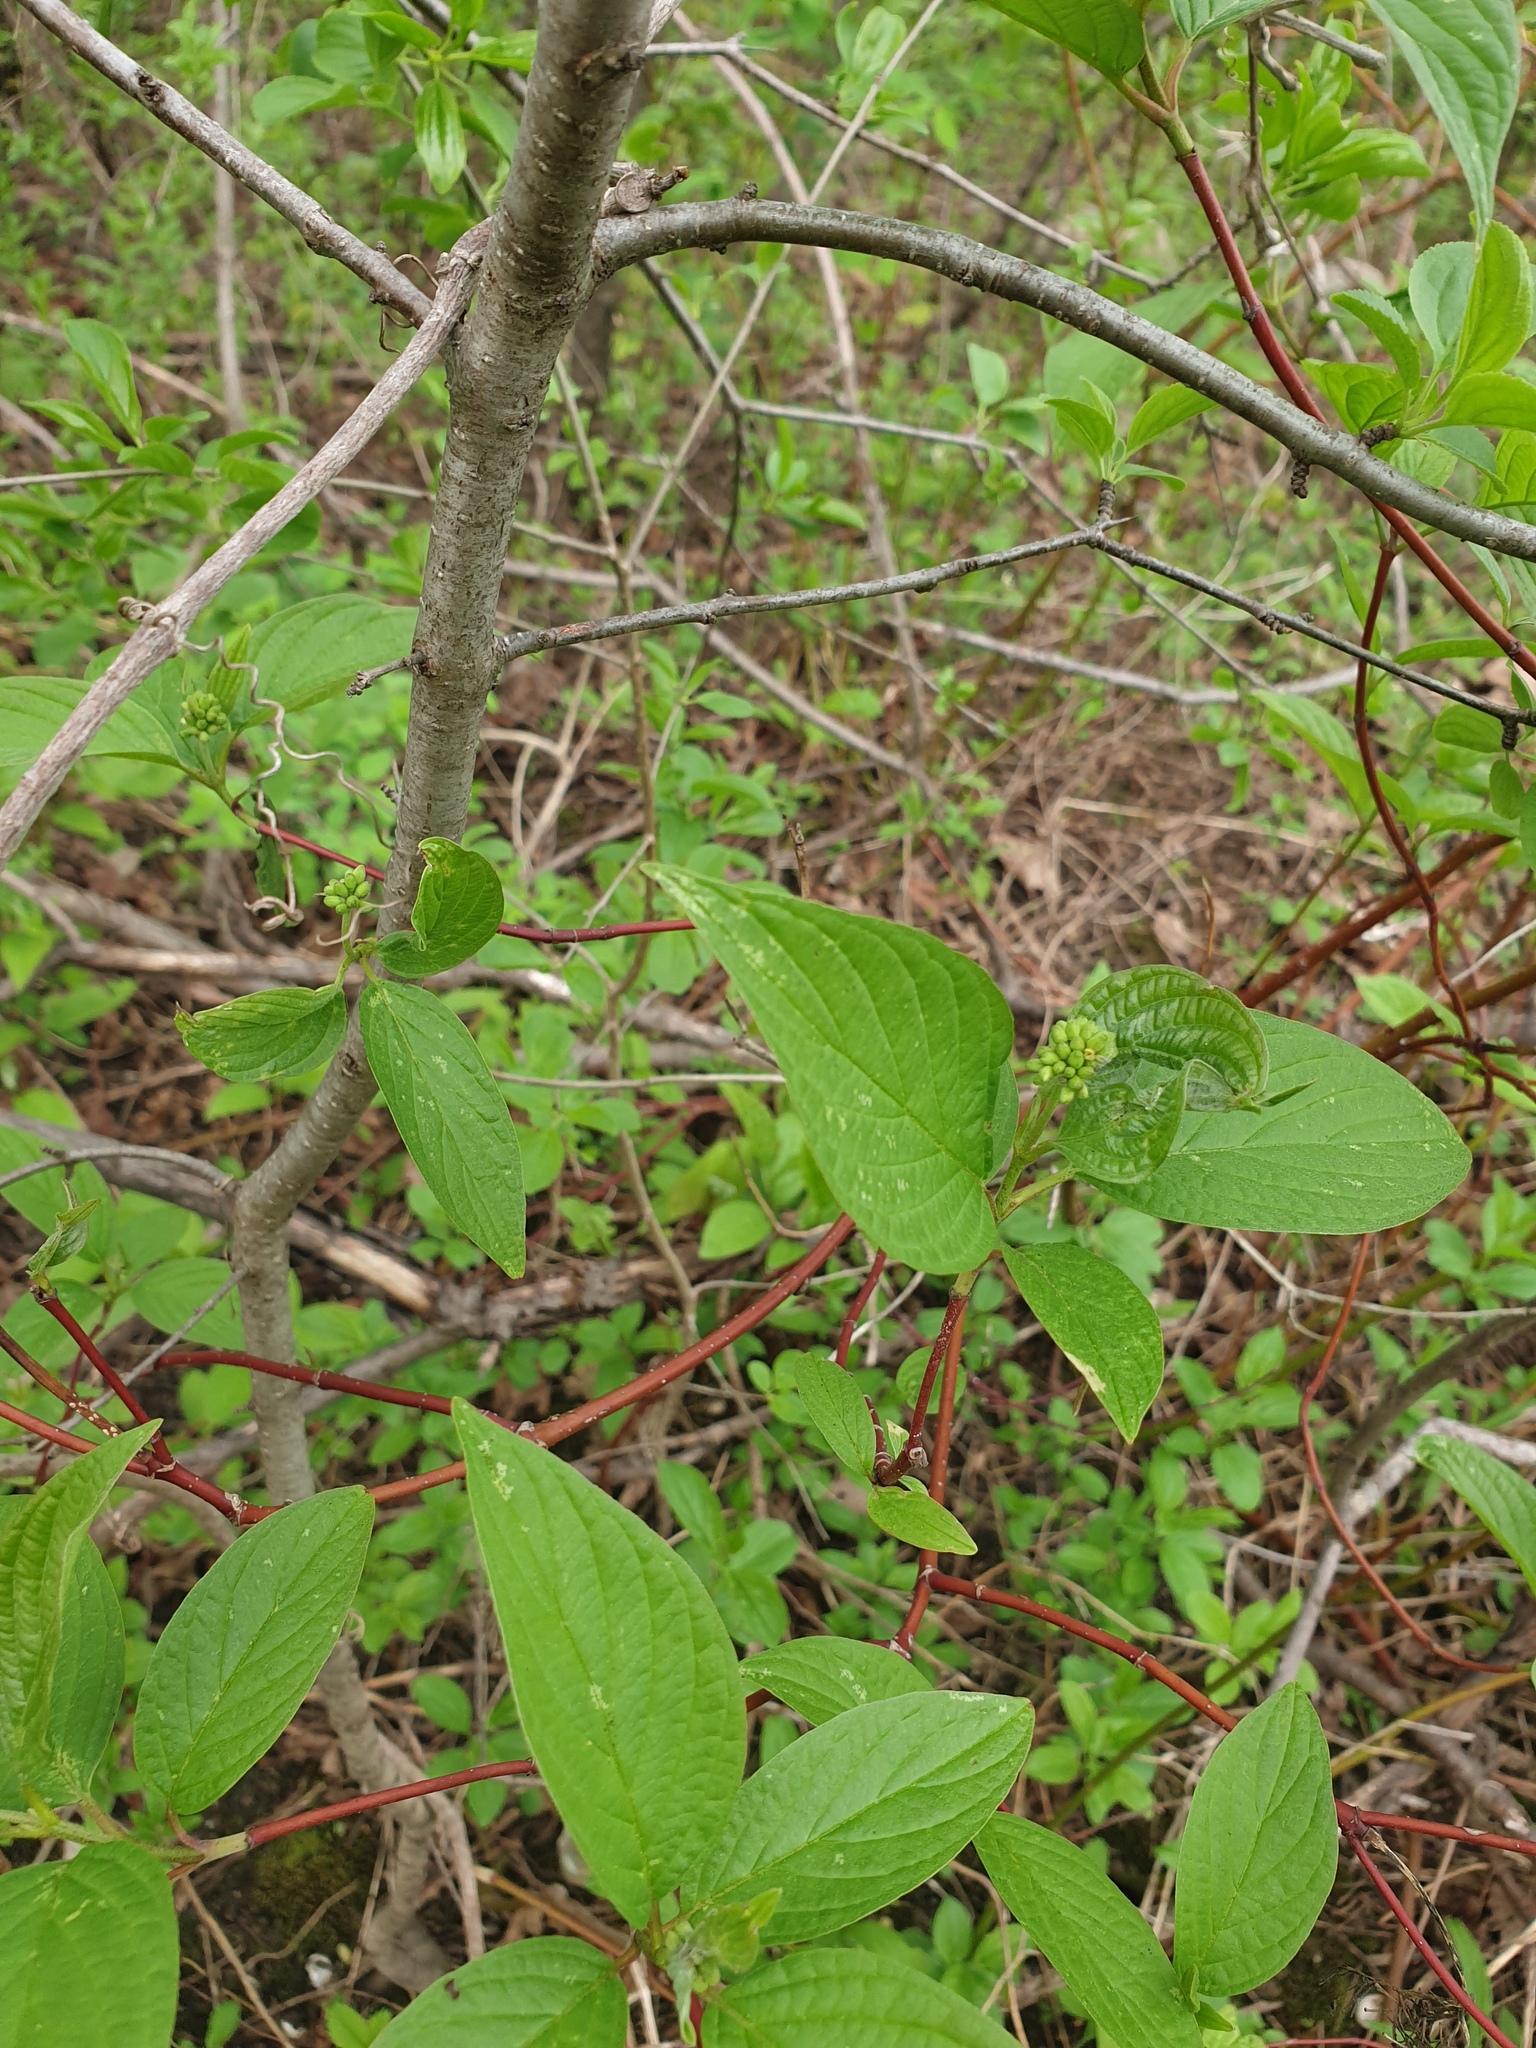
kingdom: Plantae
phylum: Tracheophyta
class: Magnoliopsida
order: Cornales
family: Cornaceae
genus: Cornus
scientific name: Cornus sericea
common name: Red-osier dogwood
